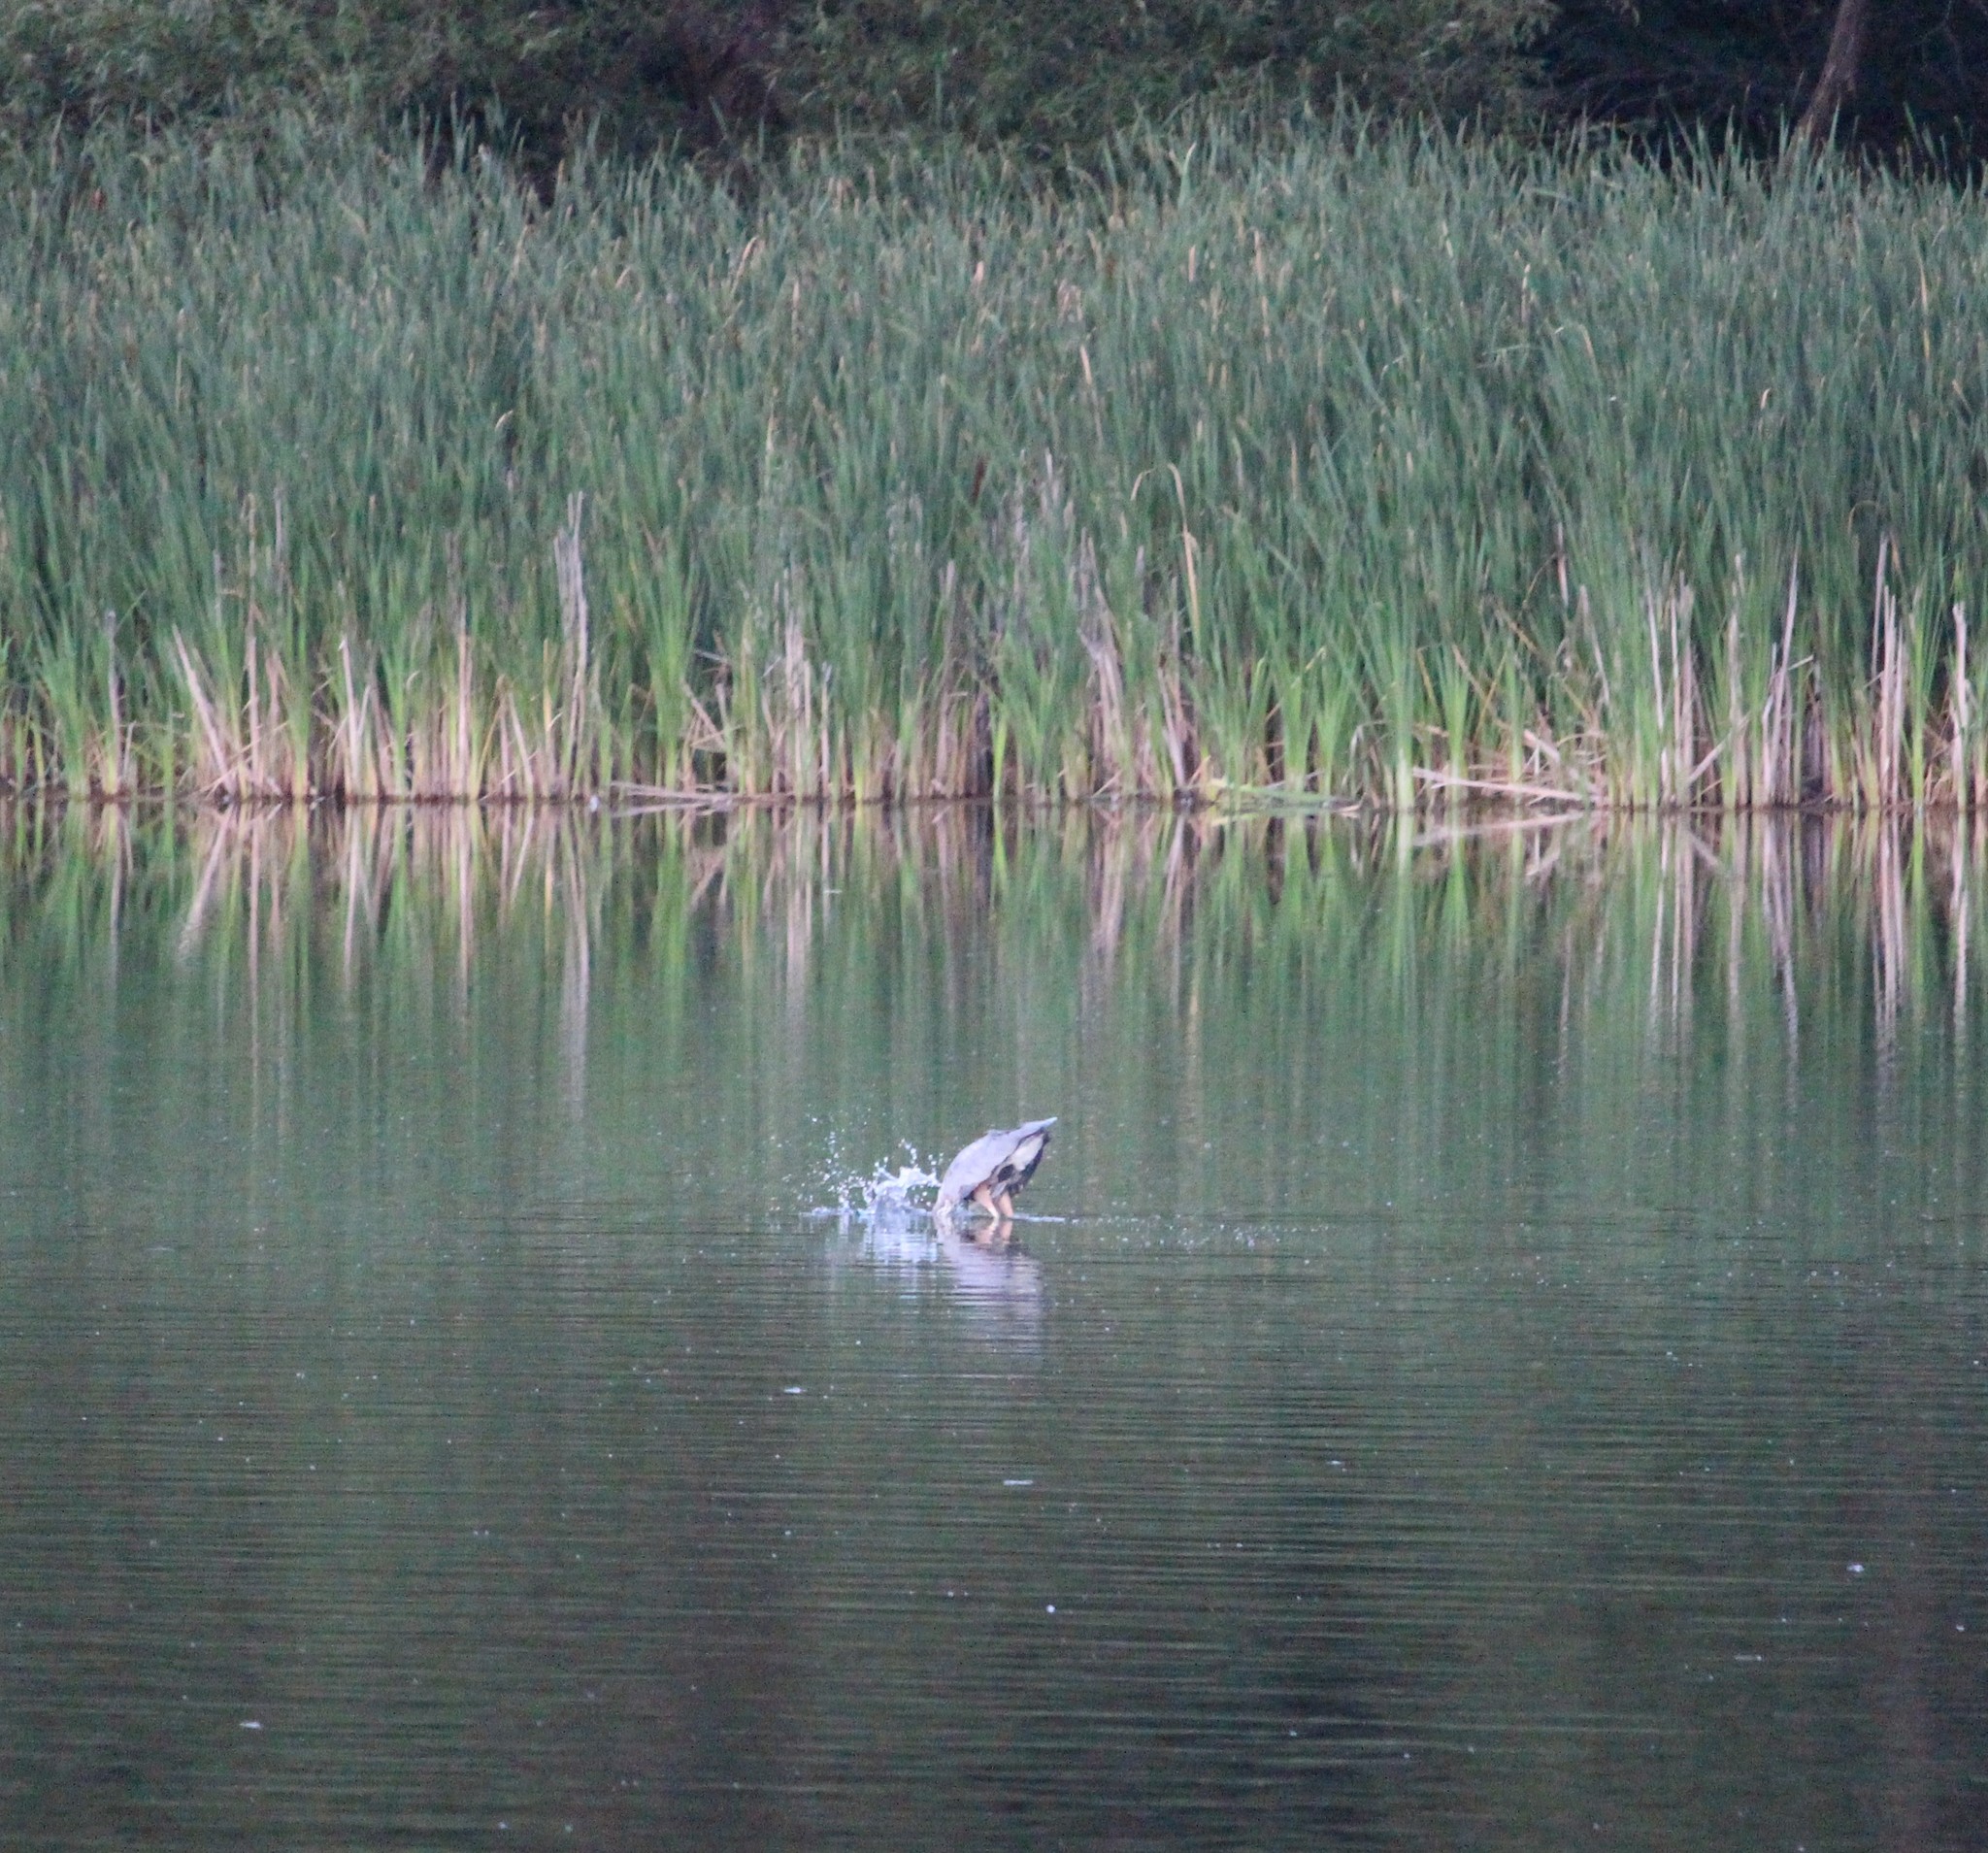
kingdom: Animalia
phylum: Chordata
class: Aves
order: Pelecaniformes
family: Ardeidae
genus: Ardea
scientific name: Ardea herodias
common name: Great blue heron
